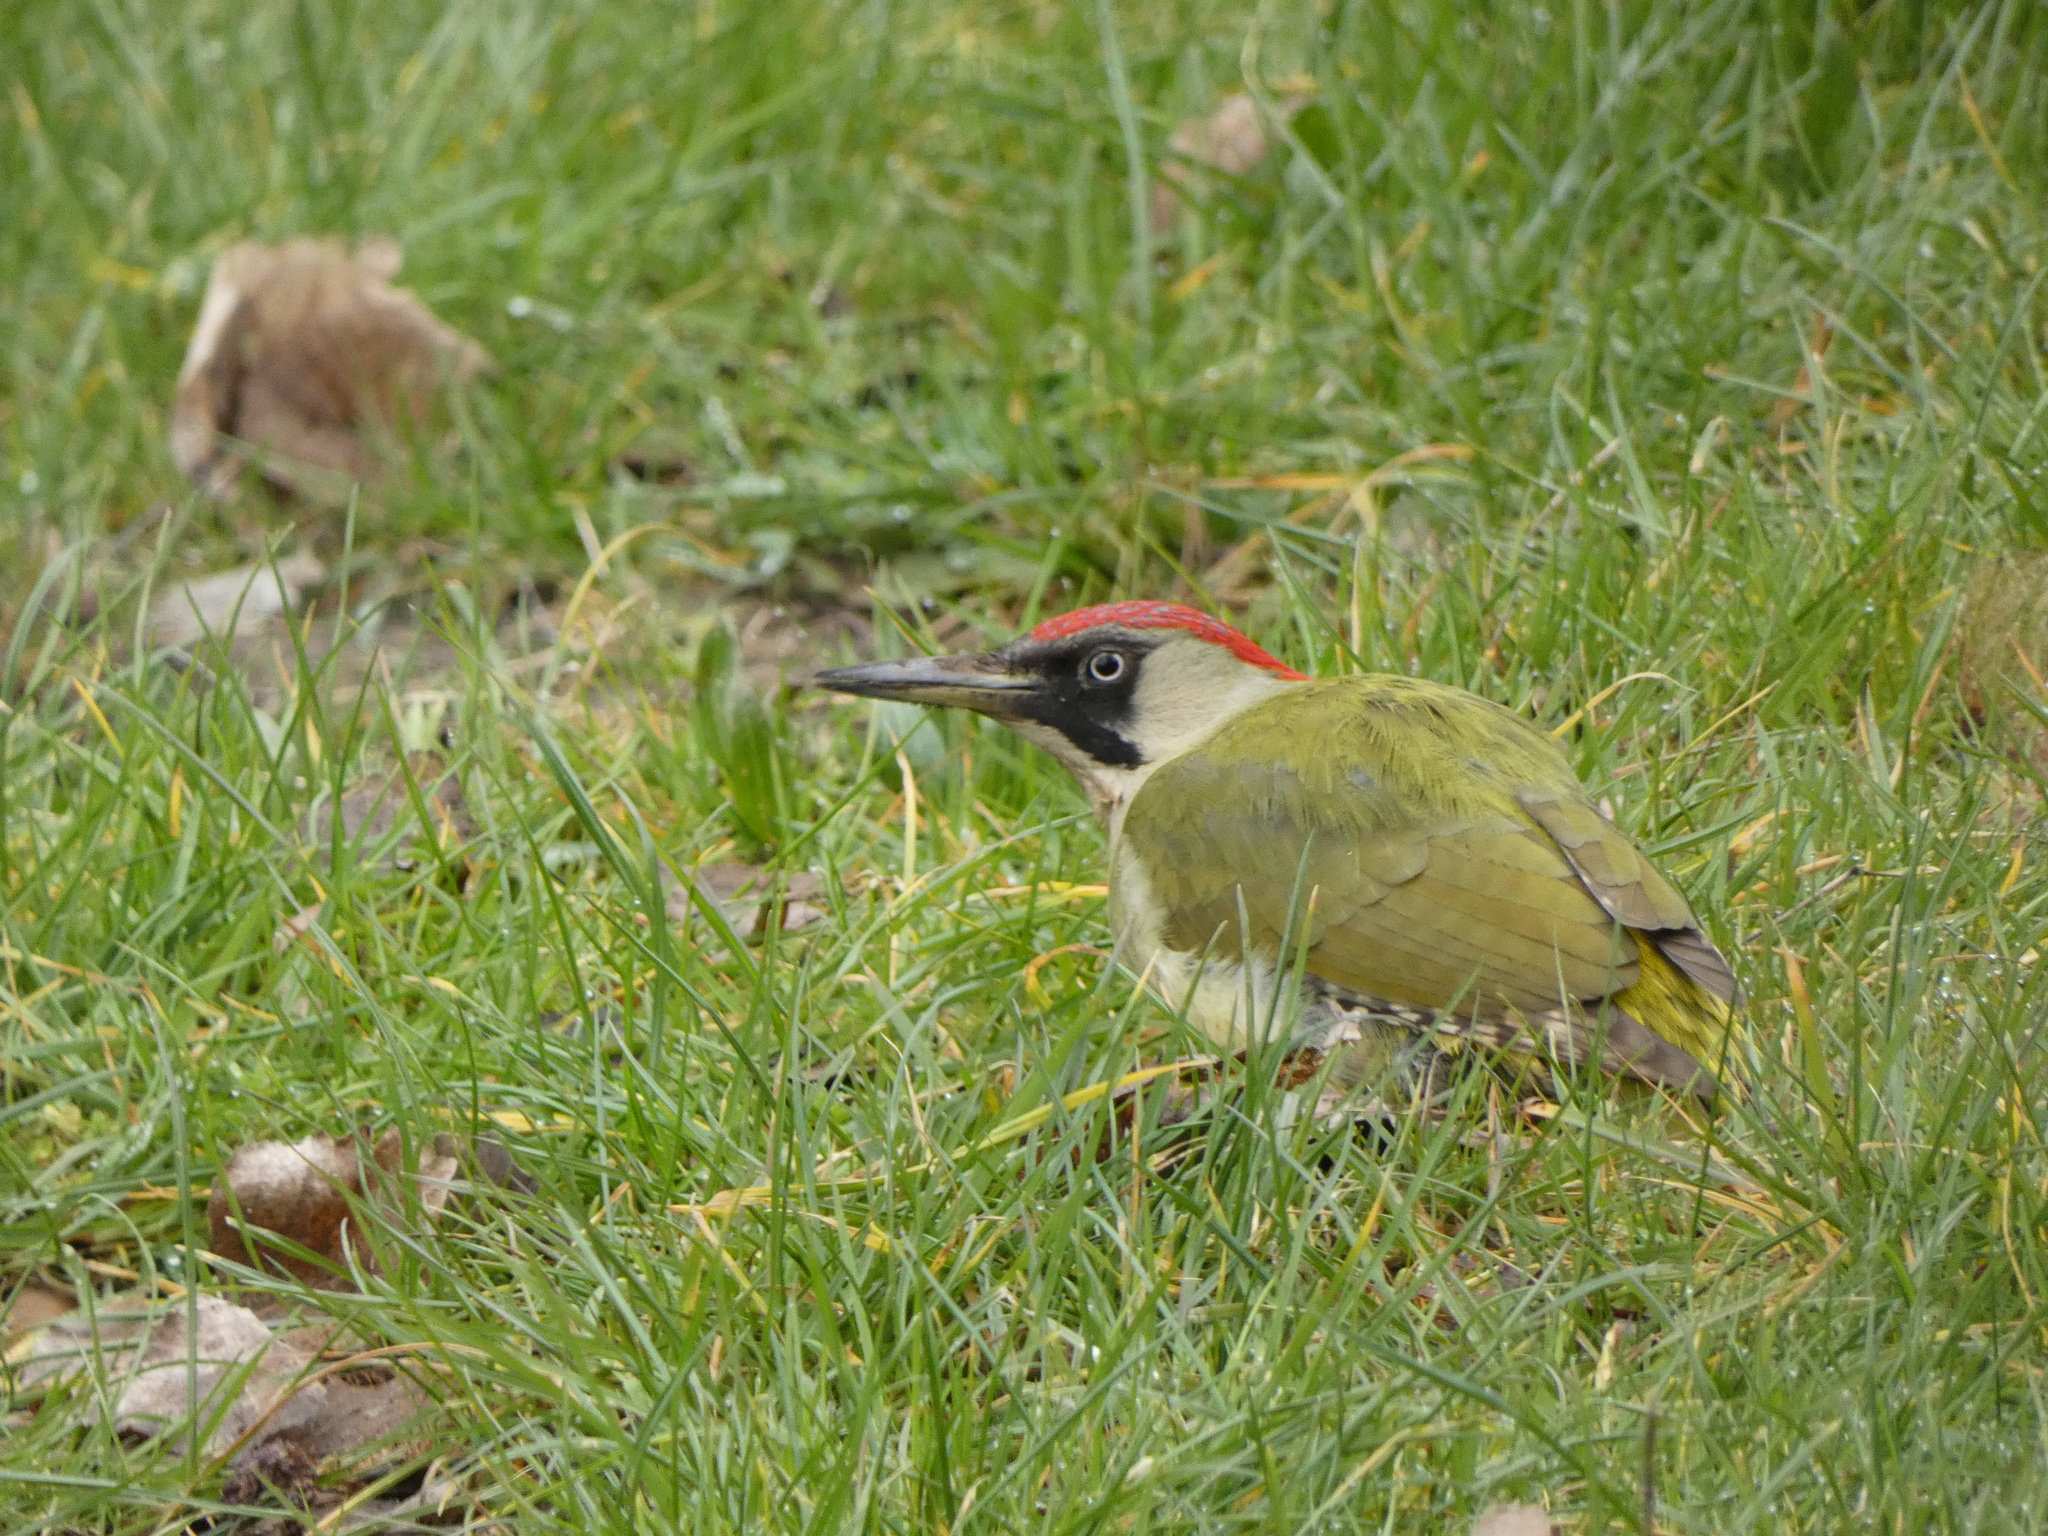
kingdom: Animalia
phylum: Chordata
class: Aves
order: Piciformes
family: Picidae
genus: Picus
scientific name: Picus viridis
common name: European green woodpecker
